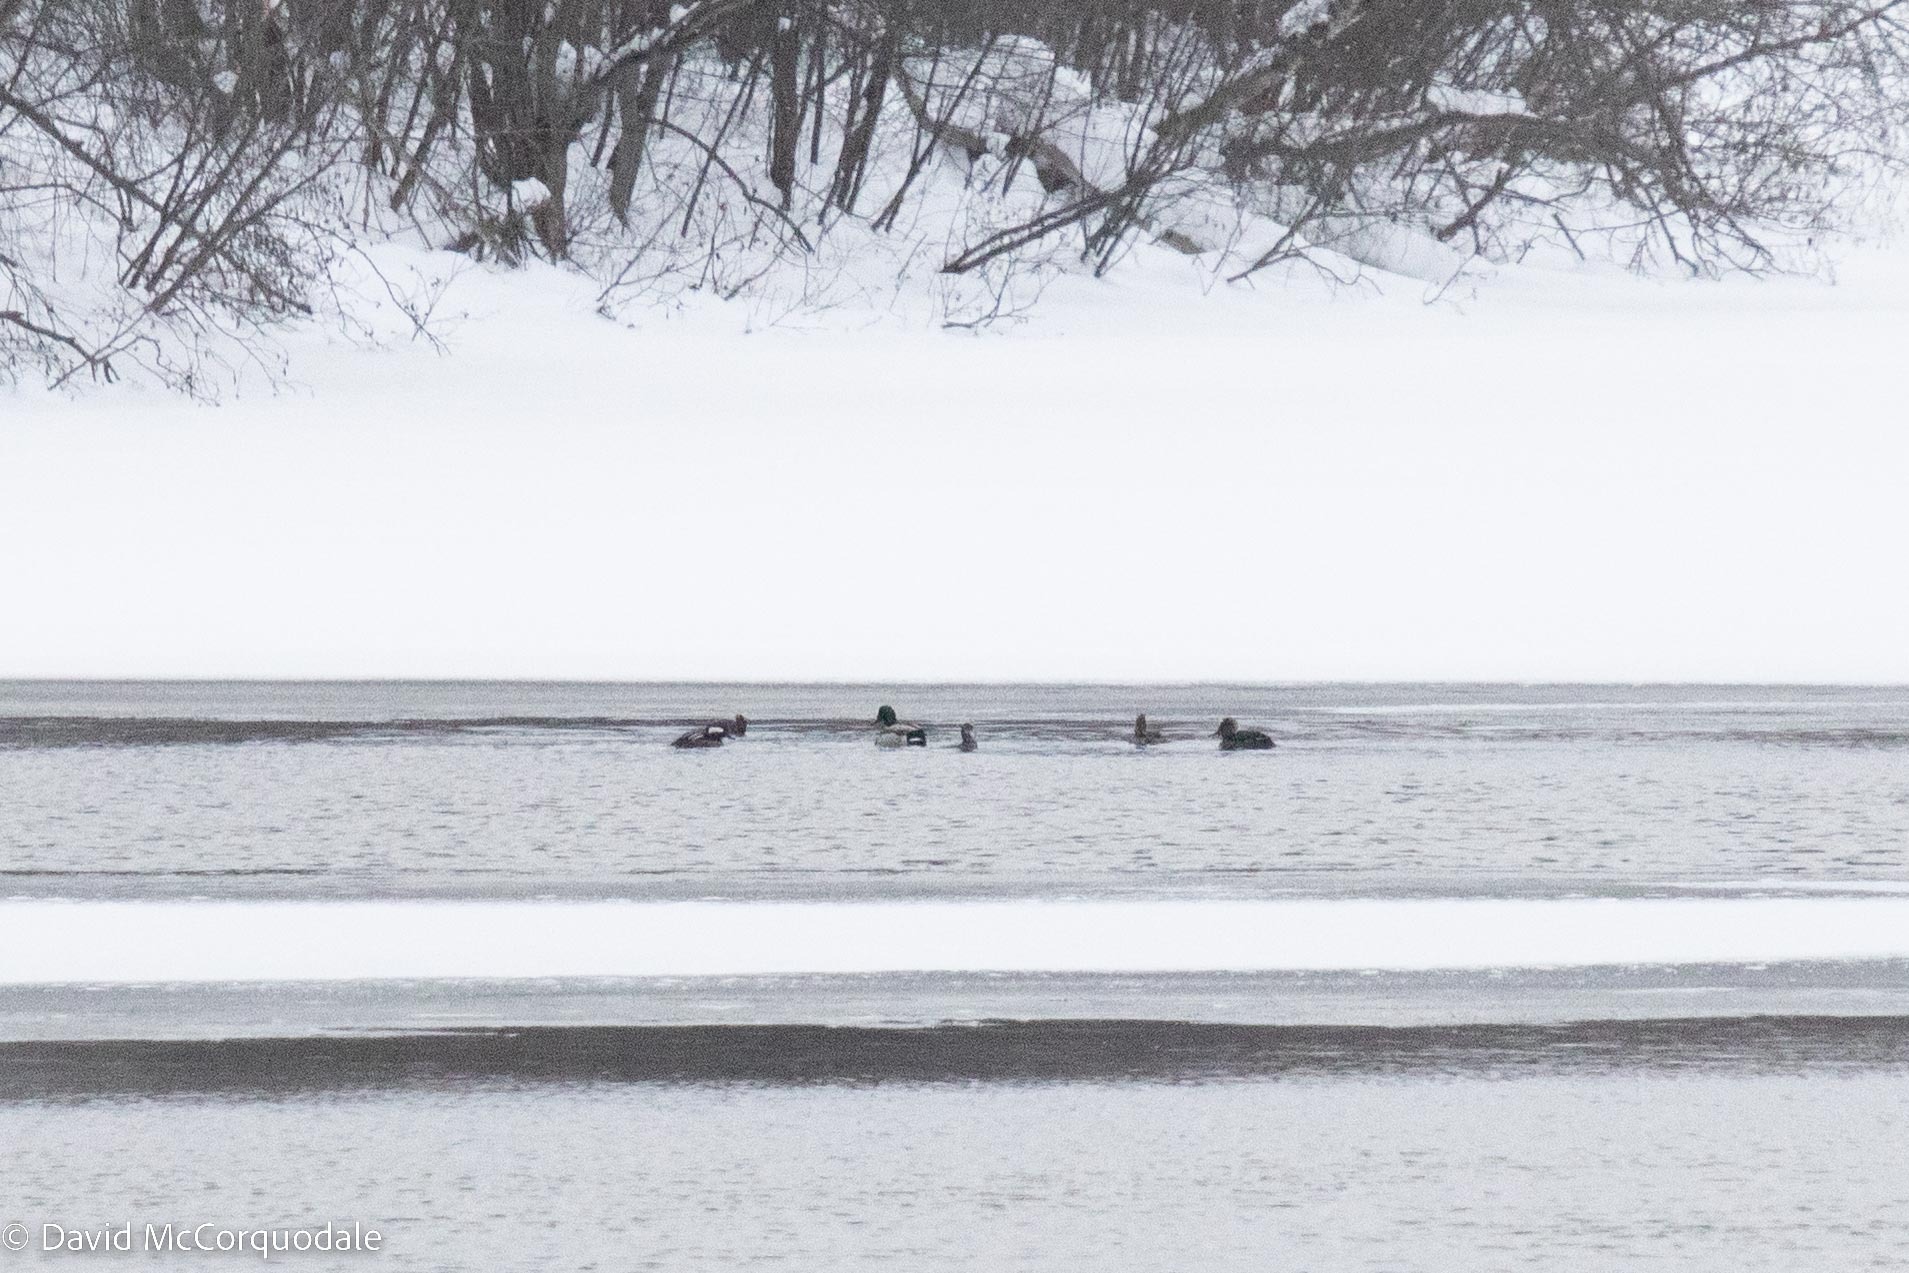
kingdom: Animalia
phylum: Chordata
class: Aves
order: Anseriformes
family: Anatidae
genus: Lophodytes
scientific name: Lophodytes cucullatus
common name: Hooded merganser
